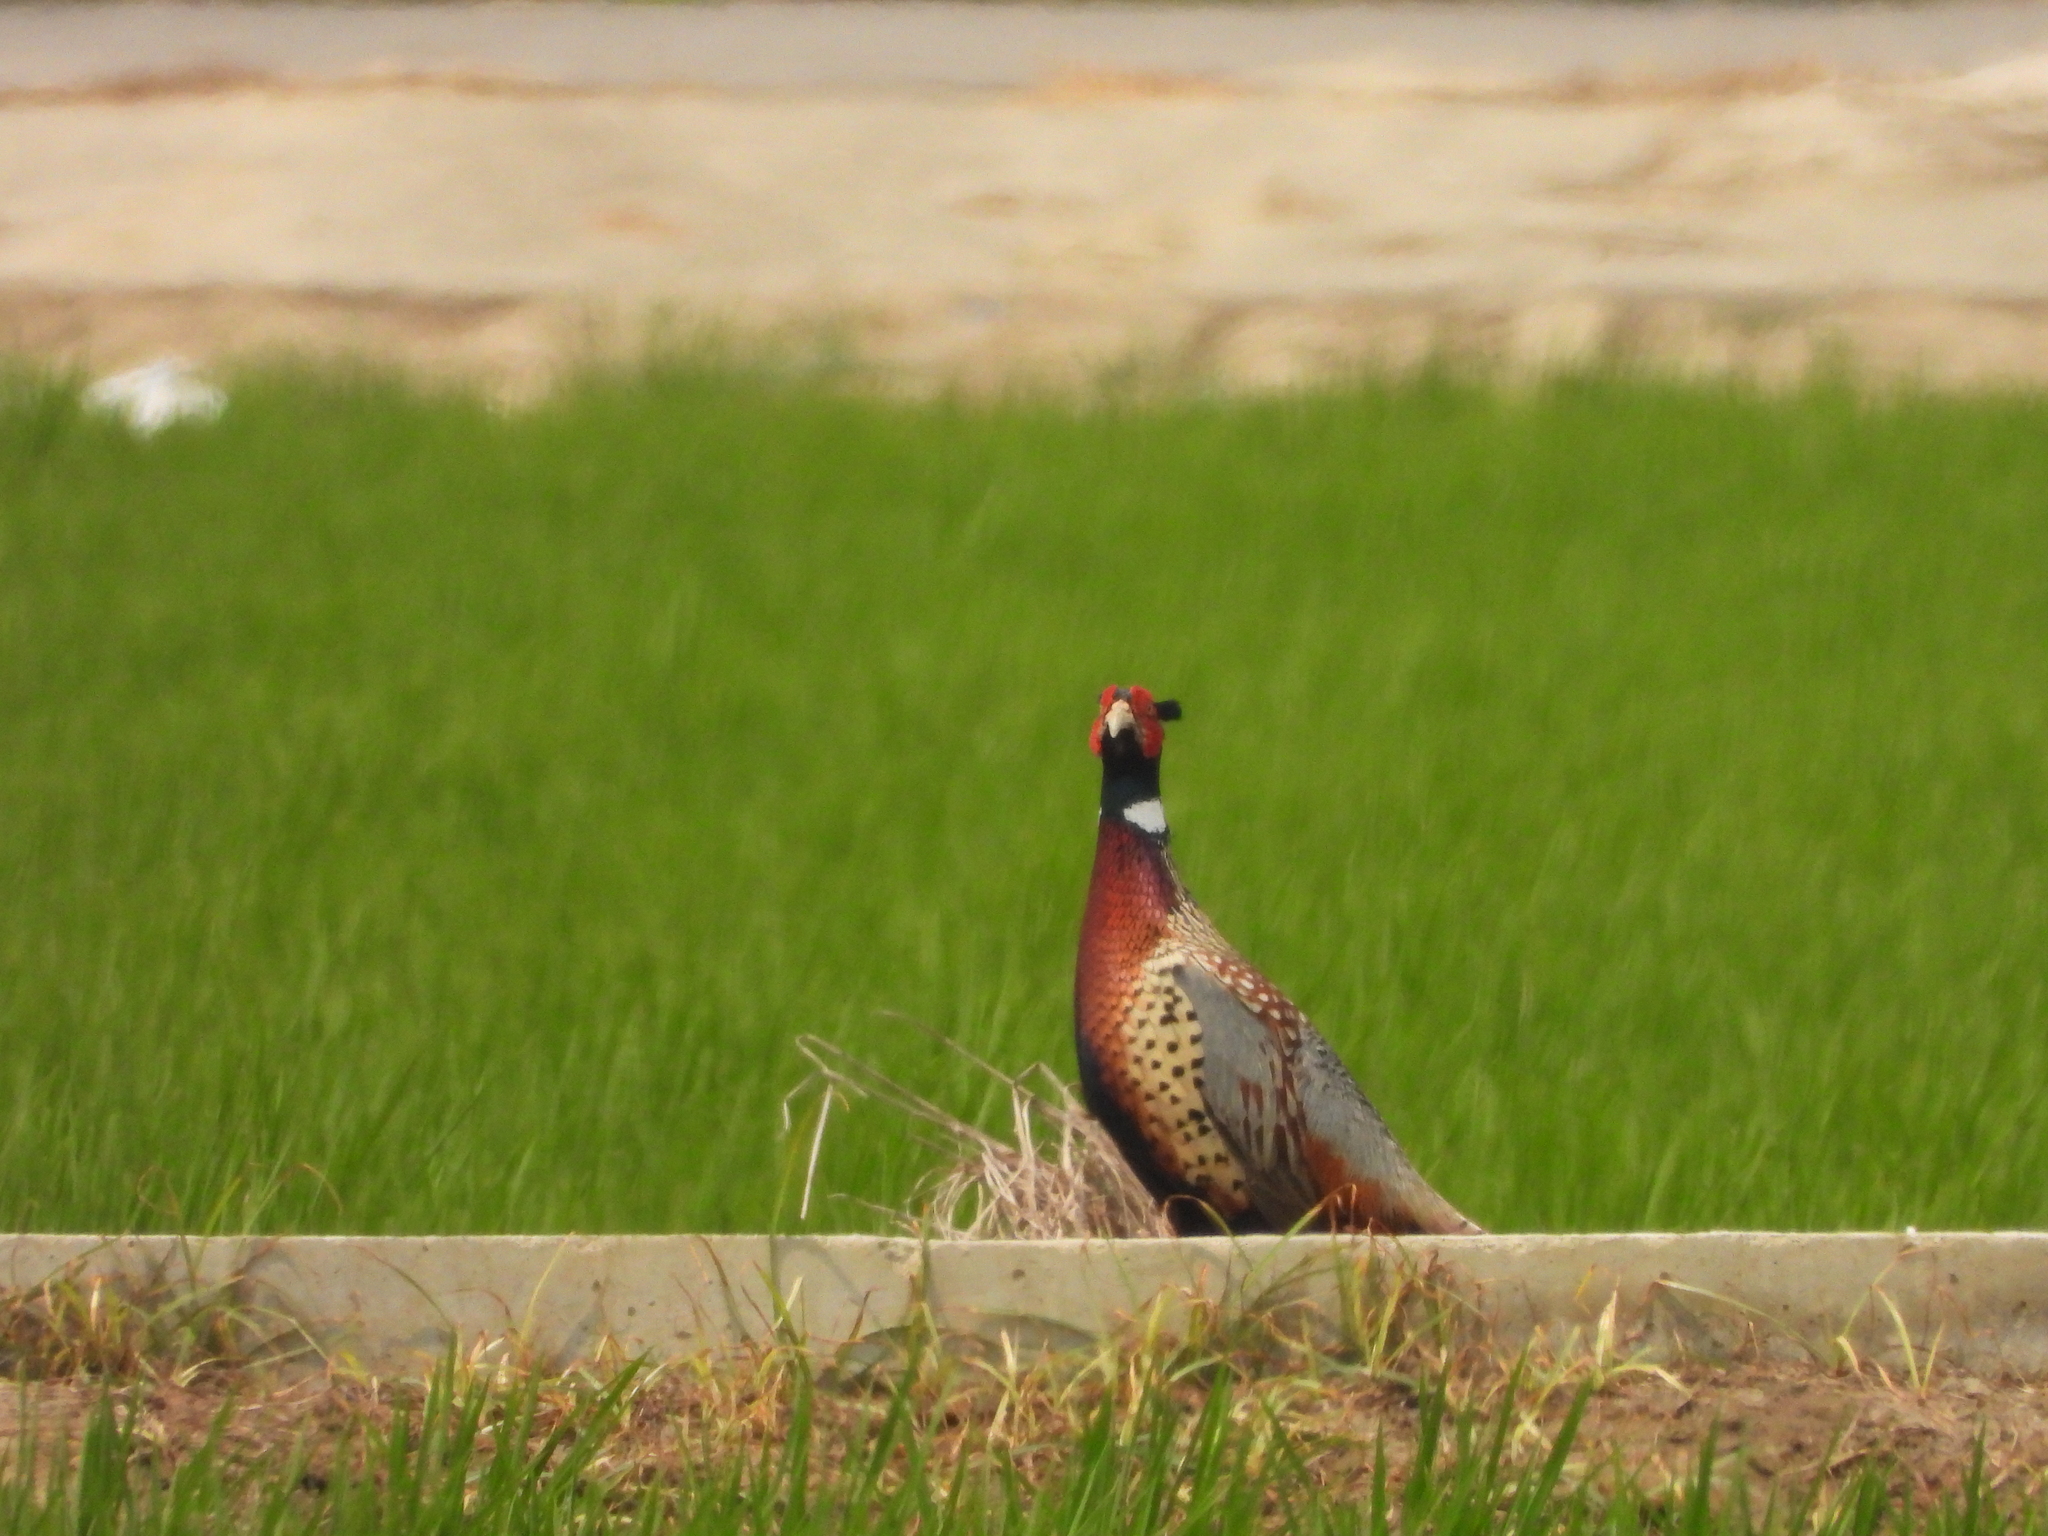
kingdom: Animalia
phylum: Chordata
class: Aves
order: Galliformes
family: Phasianidae
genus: Phasianus
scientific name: Phasianus colchicus
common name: Common pheasant
